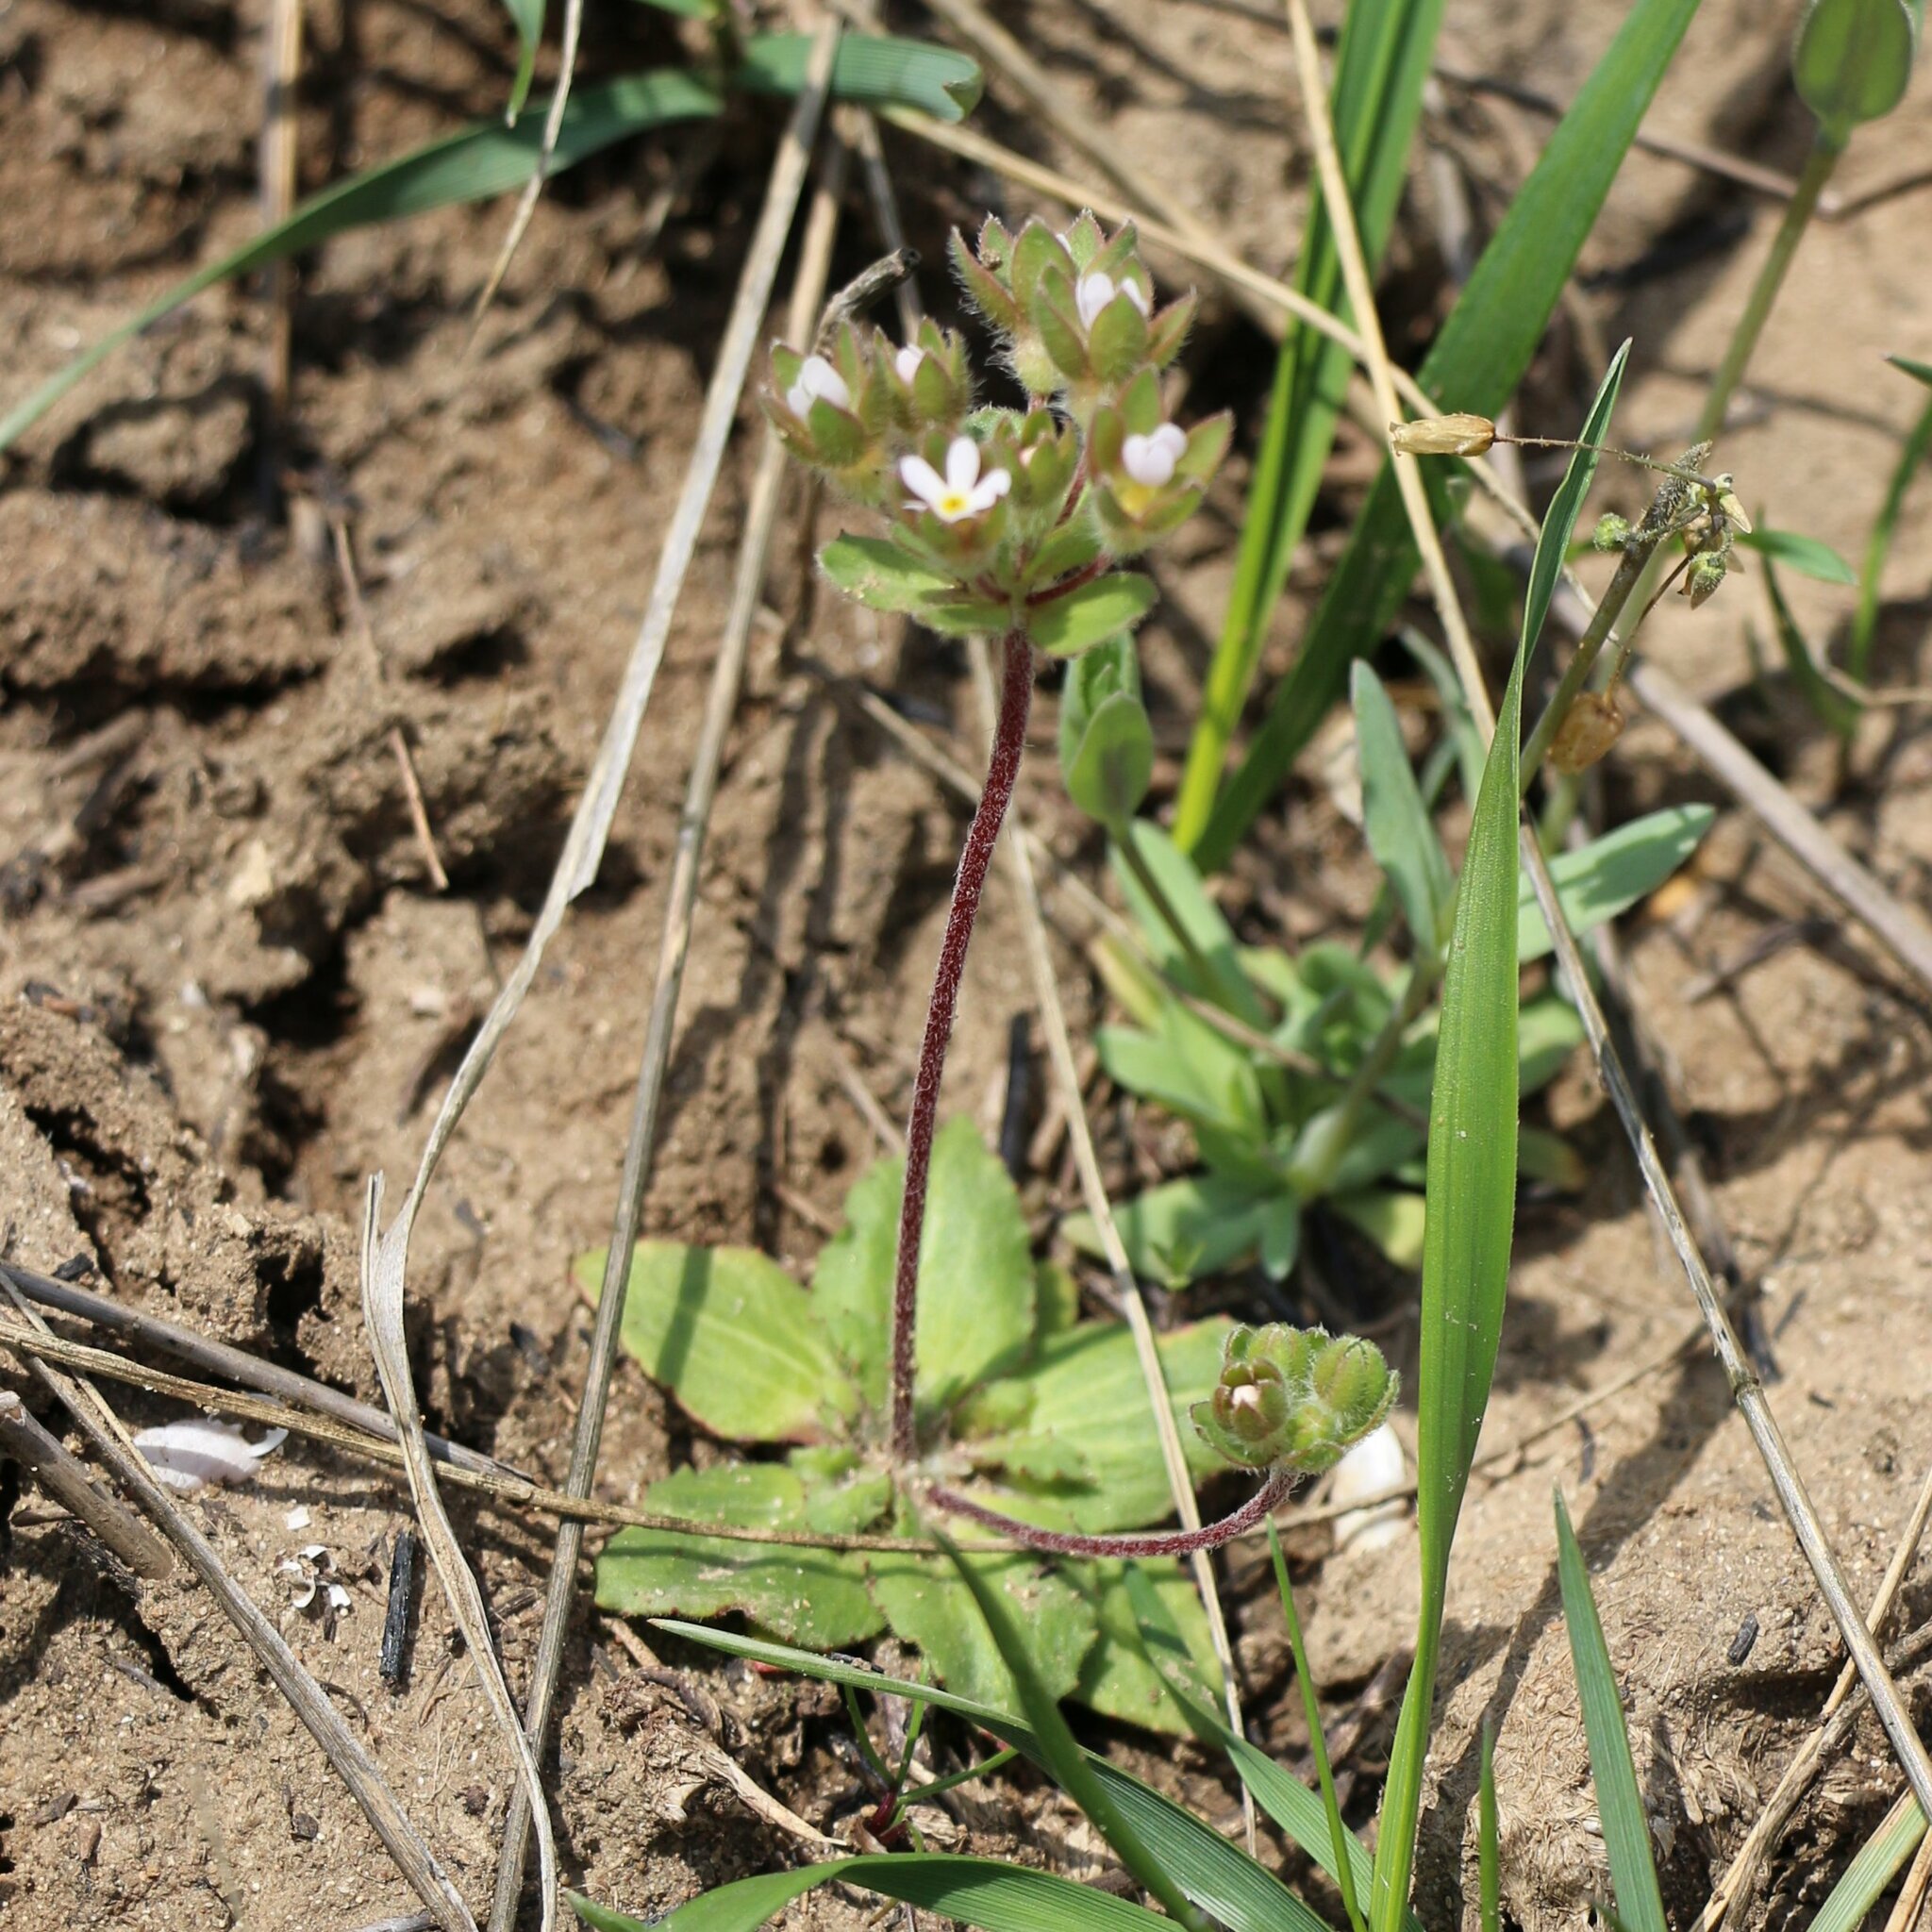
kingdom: Plantae
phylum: Tracheophyta
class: Magnoliopsida
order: Ericales
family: Primulaceae
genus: Androsace
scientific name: Androsace maxima
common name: Annual androsace
